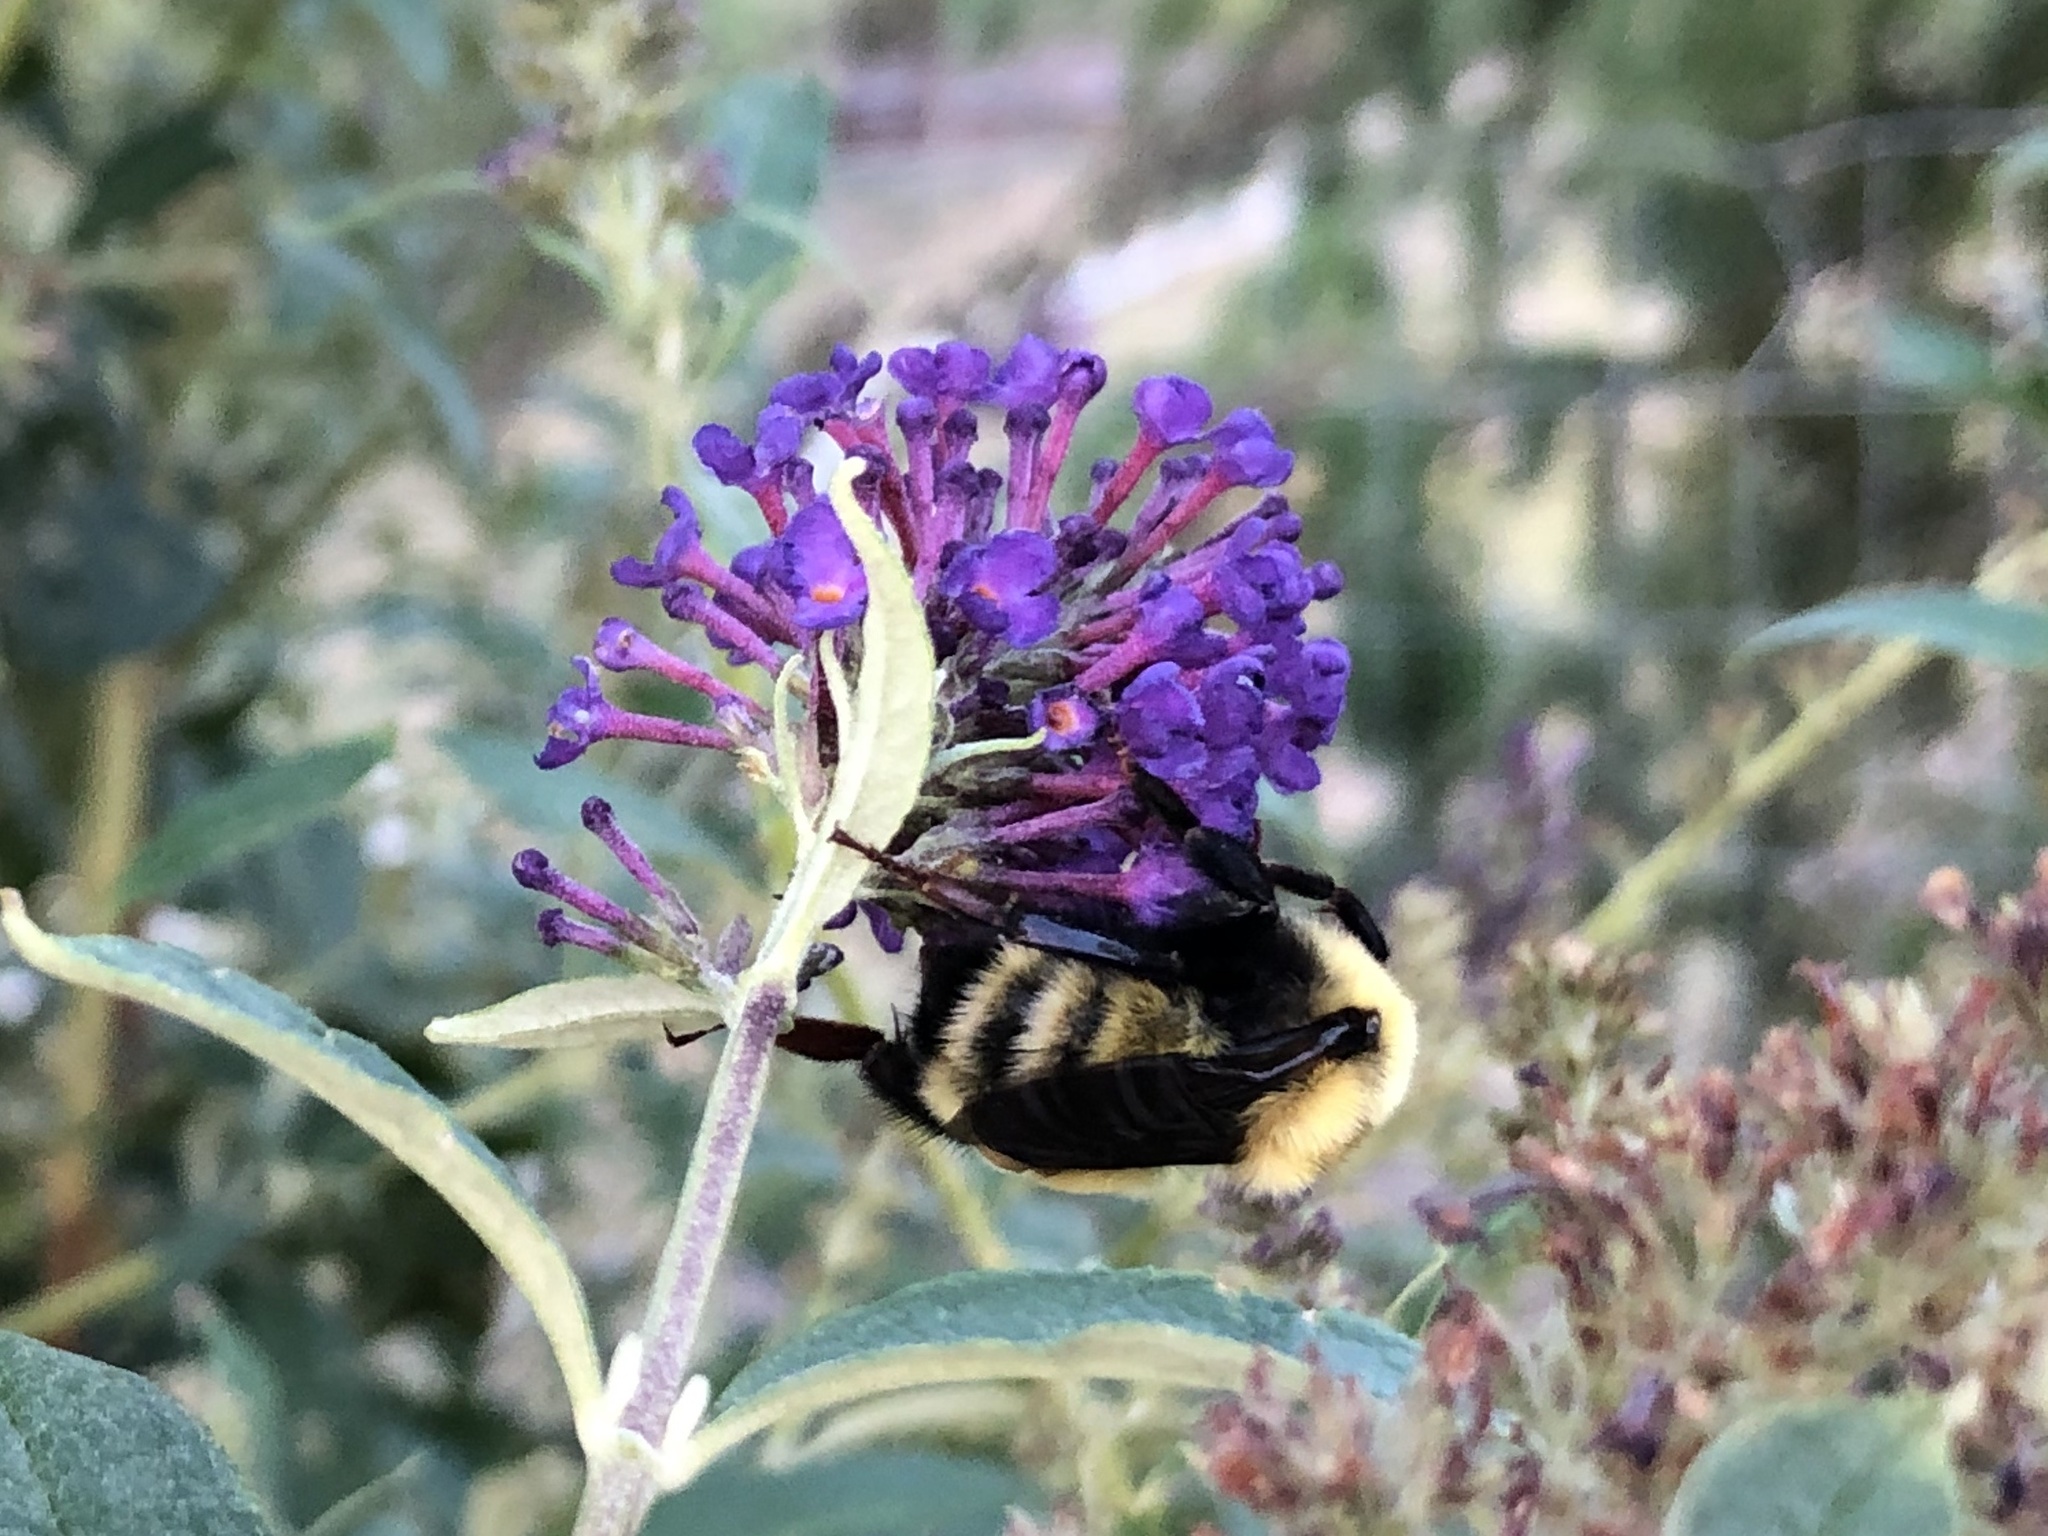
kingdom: Animalia
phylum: Arthropoda
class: Insecta
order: Hymenoptera
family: Apidae
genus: Bombus
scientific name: Bombus fervidus
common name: Yellow bumble bee
